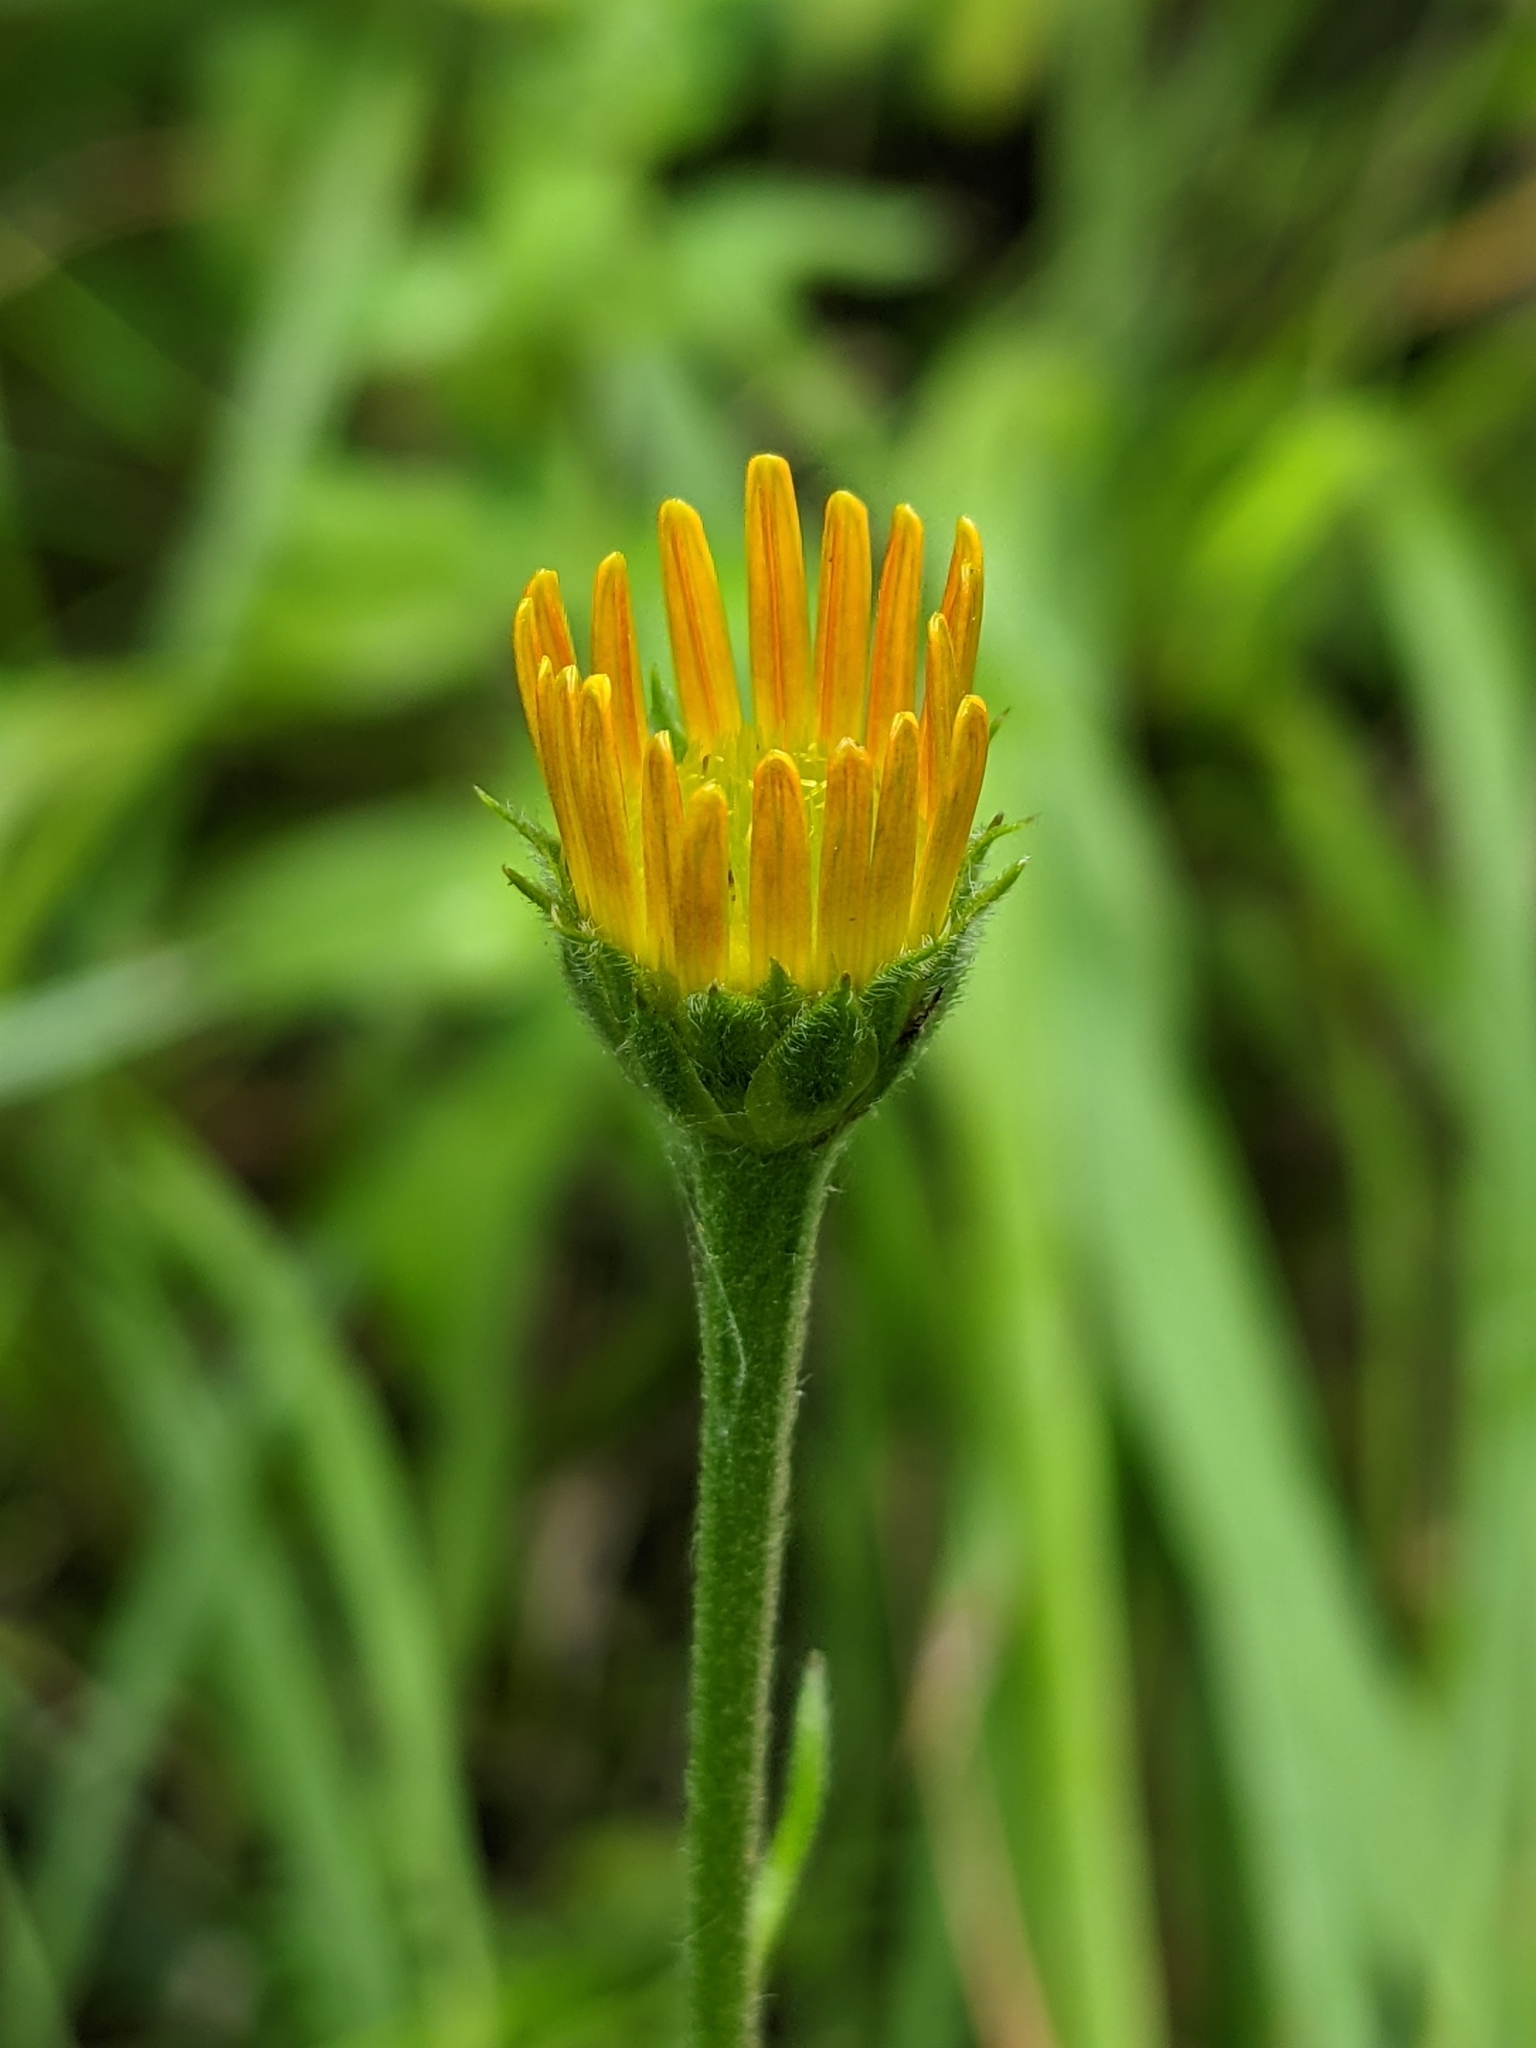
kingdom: Plantae
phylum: Tracheophyta
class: Magnoliopsida
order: Asterales
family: Asteraceae
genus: Buphthalmum
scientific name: Buphthalmum salicifolium
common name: Willow-leaved yellow-oxeye
